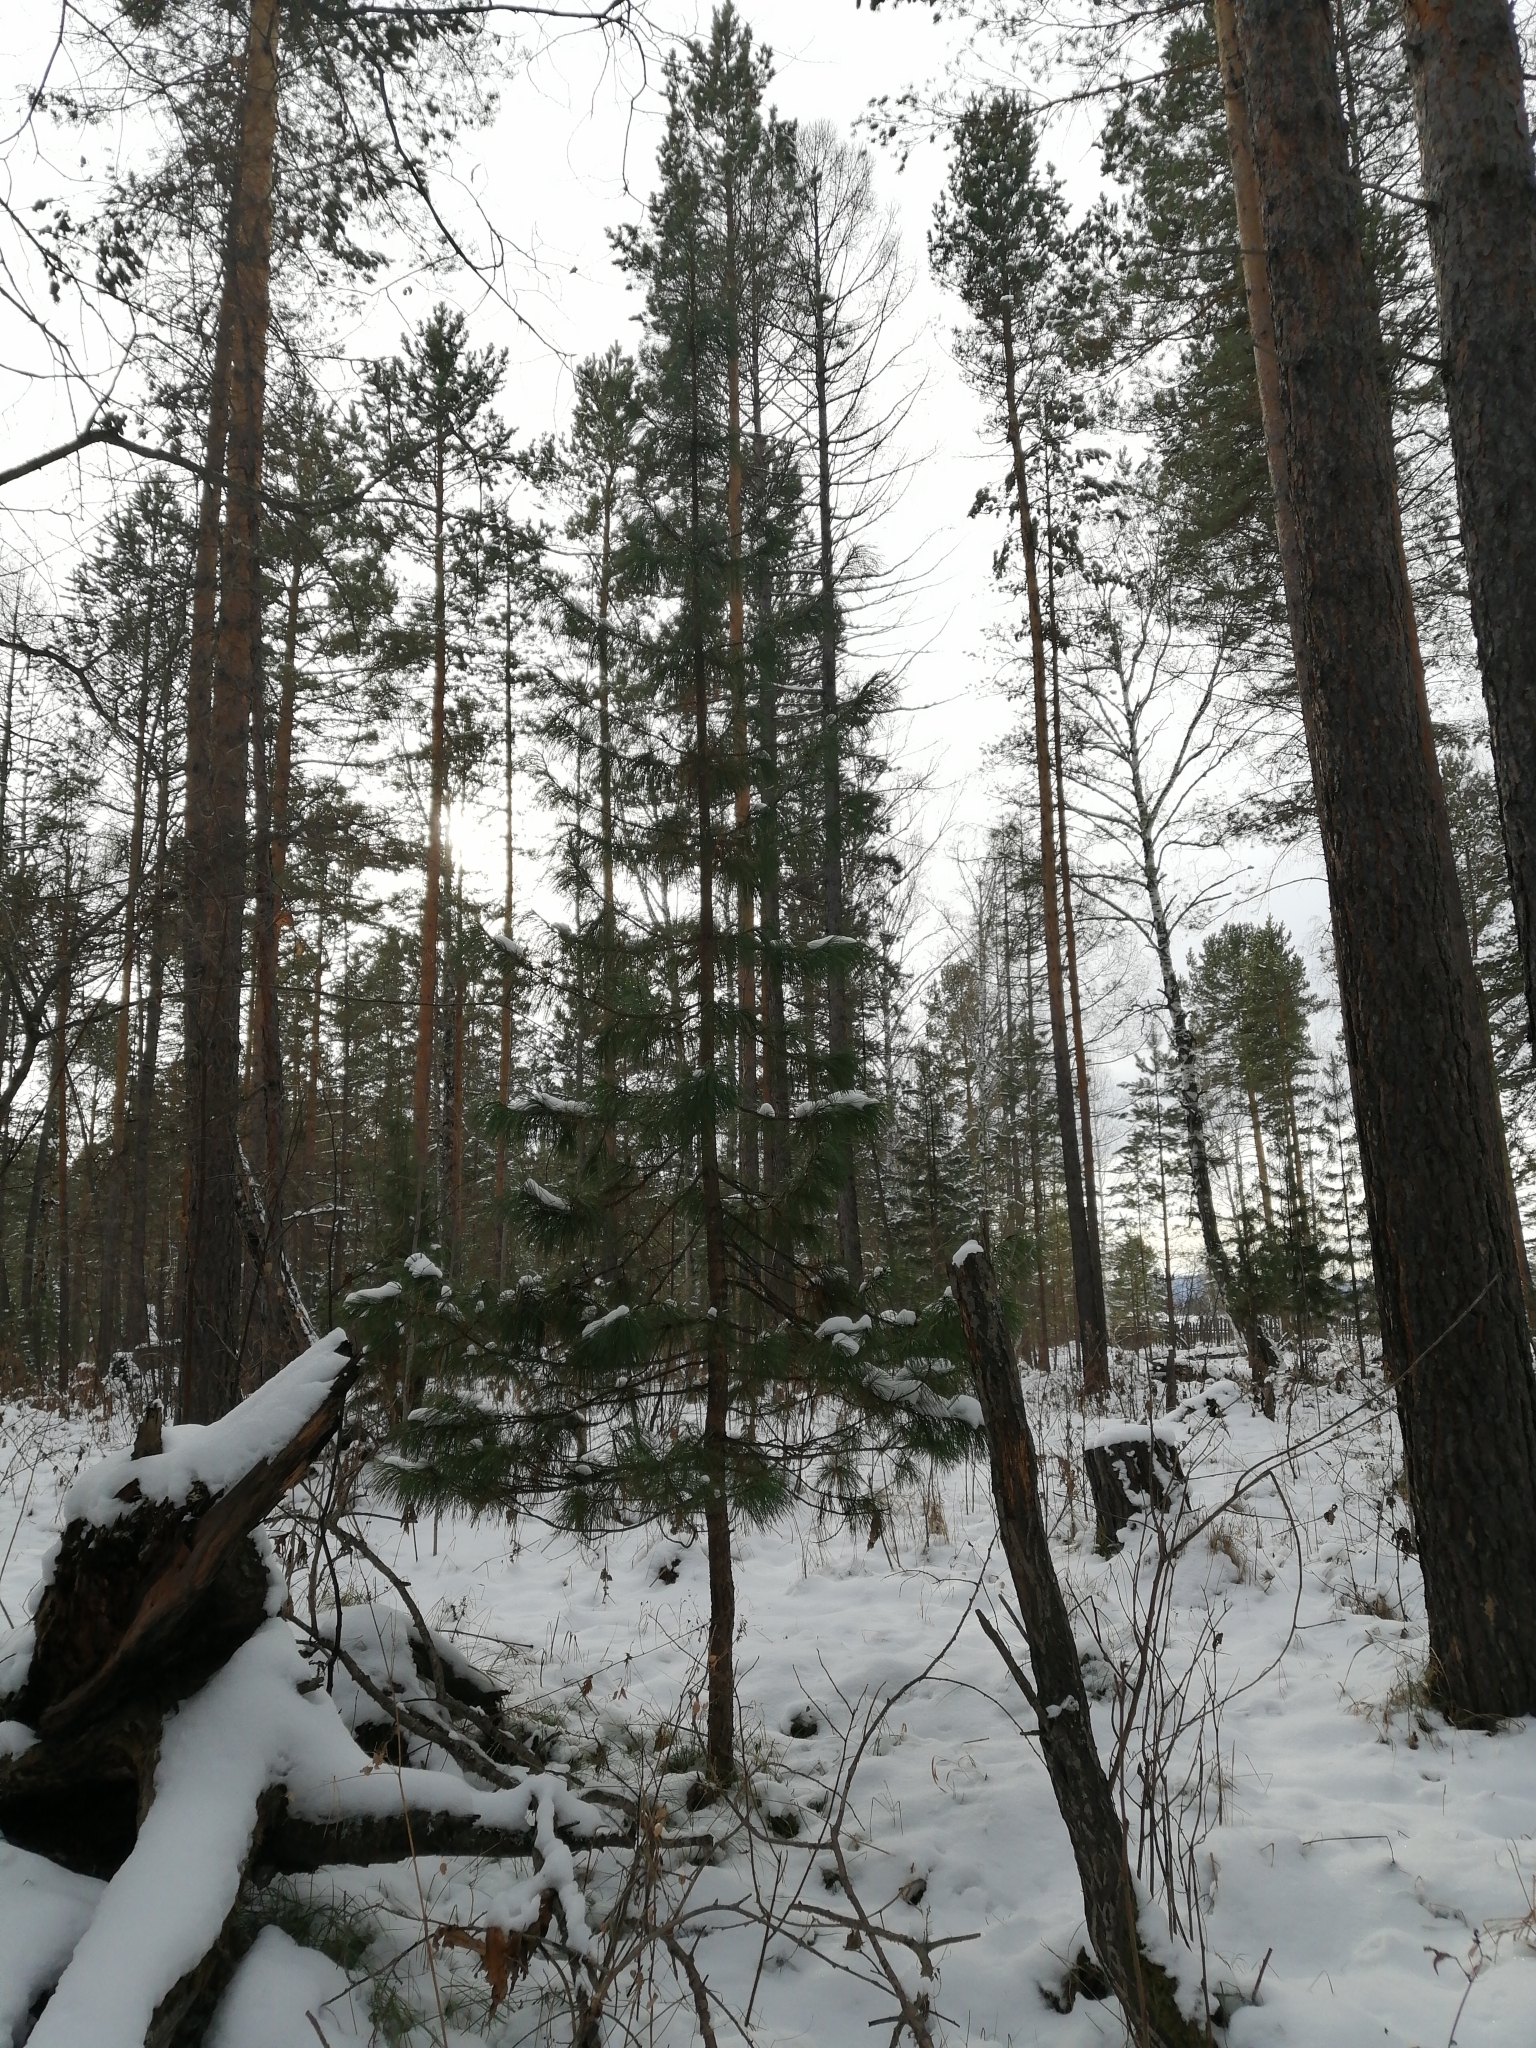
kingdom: Plantae
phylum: Tracheophyta
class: Pinopsida
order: Pinales
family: Pinaceae
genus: Pinus
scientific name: Pinus sibirica
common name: Siberian pine
